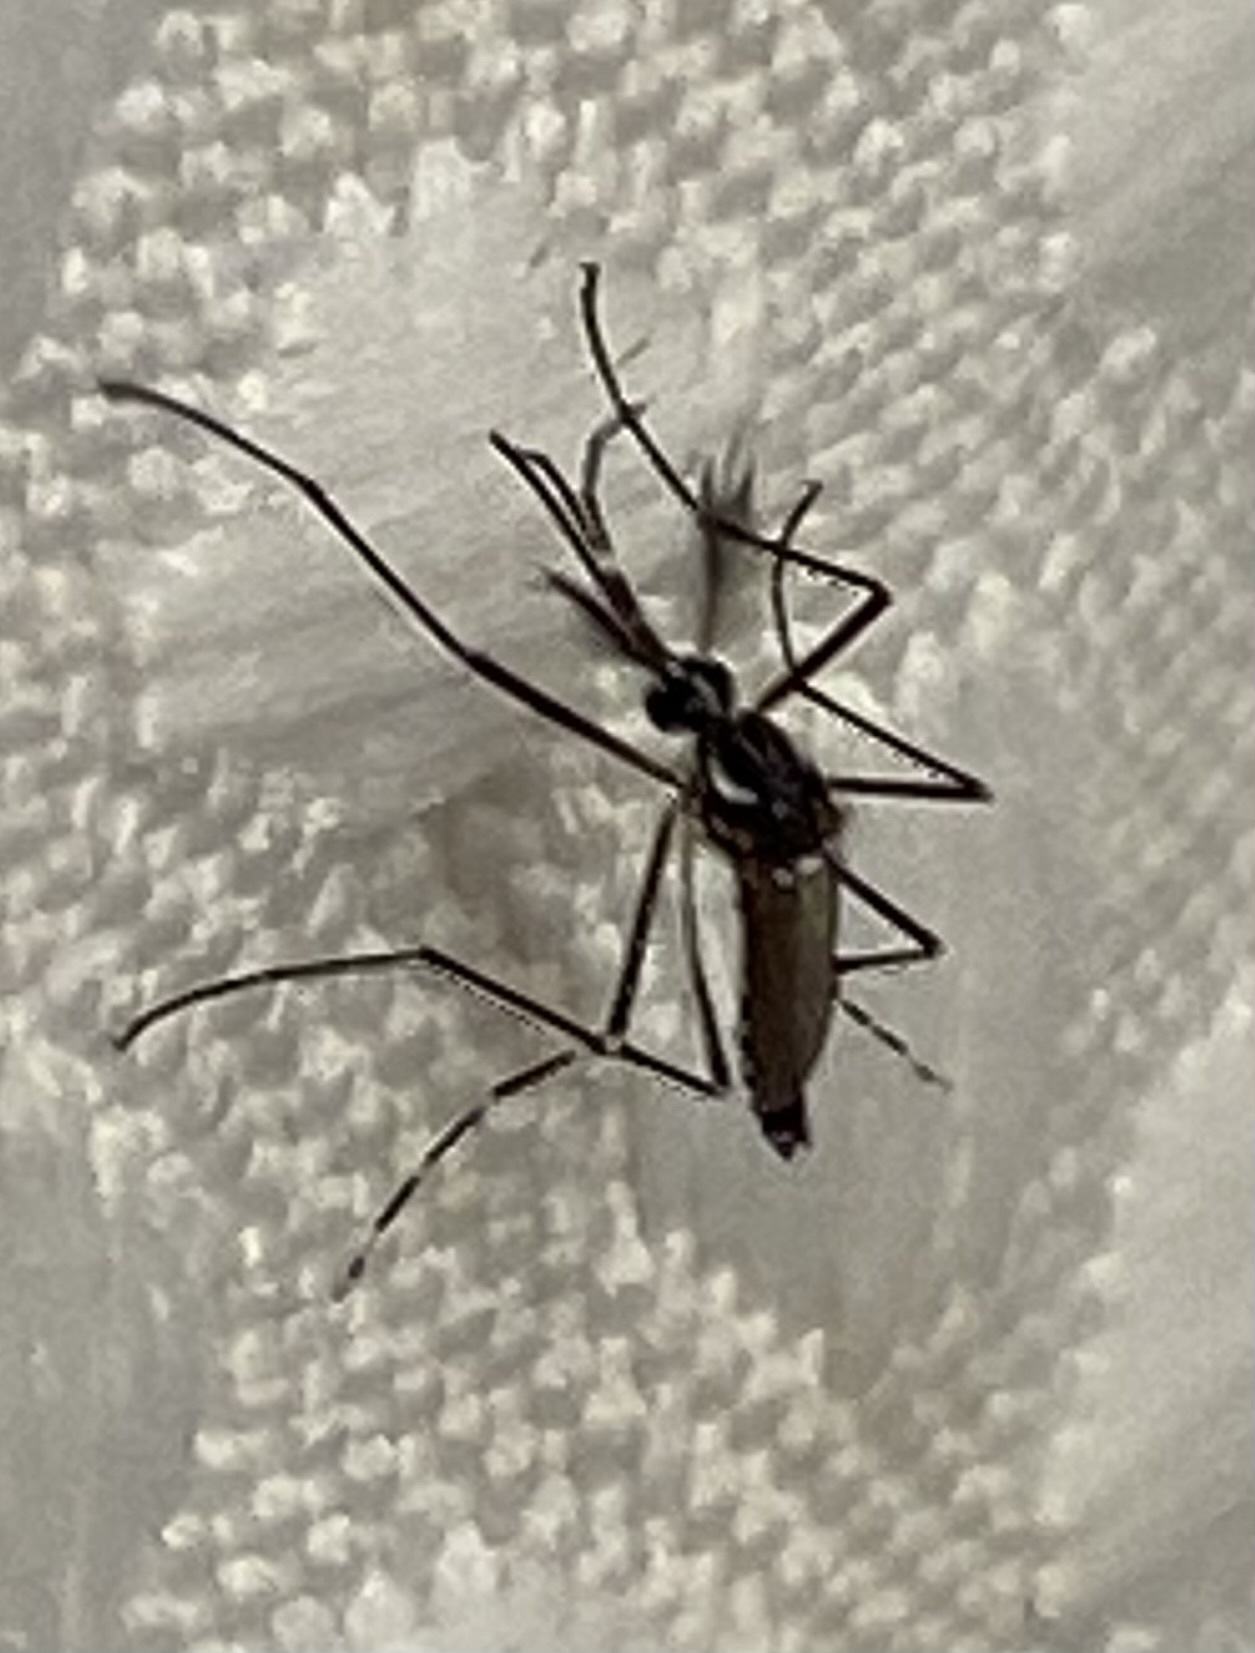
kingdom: Animalia
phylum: Arthropoda
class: Insecta
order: Diptera
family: Culicidae
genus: Aedes
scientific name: Aedes aegypti
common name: Yellow fever mosquito
